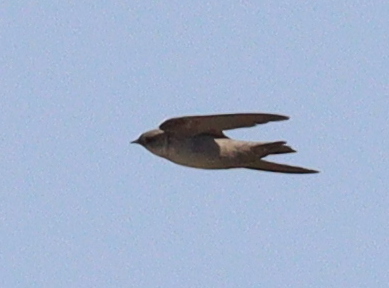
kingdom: Animalia
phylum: Chordata
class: Aves
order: Passeriformes
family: Hirundinidae
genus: Ptyonoprogne
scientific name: Ptyonoprogne fuligula
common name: Rock martin
